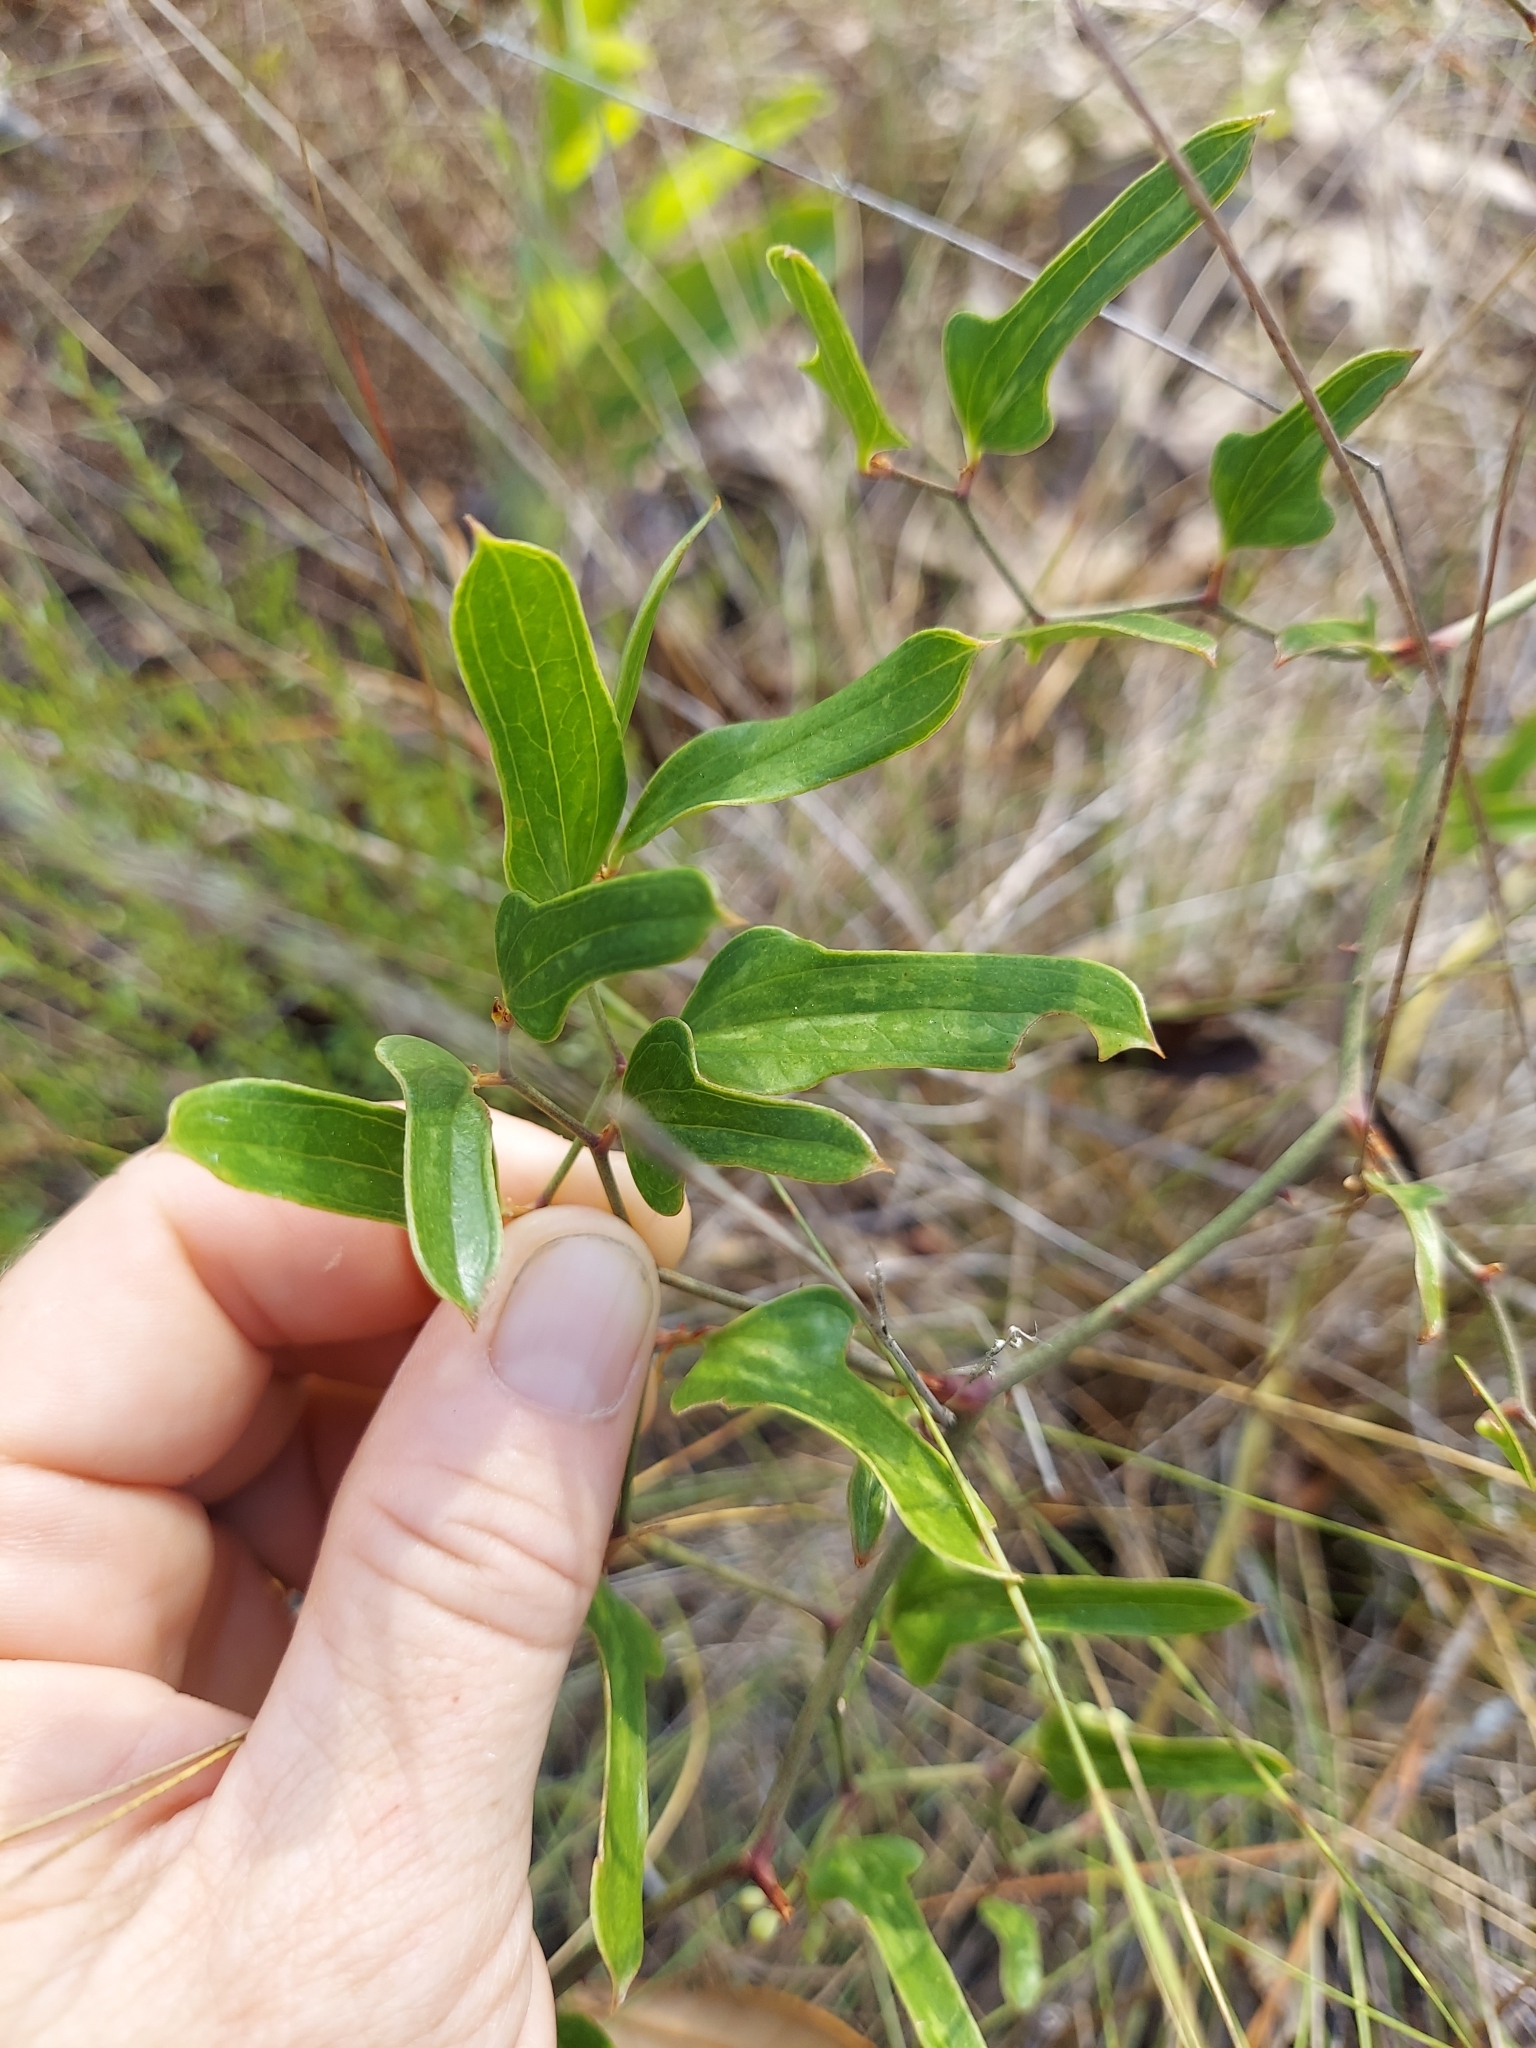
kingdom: Plantae
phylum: Tracheophyta
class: Liliopsida
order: Liliales
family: Smilacaceae
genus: Smilax
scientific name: Smilax auriculata
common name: Wild bamboo
